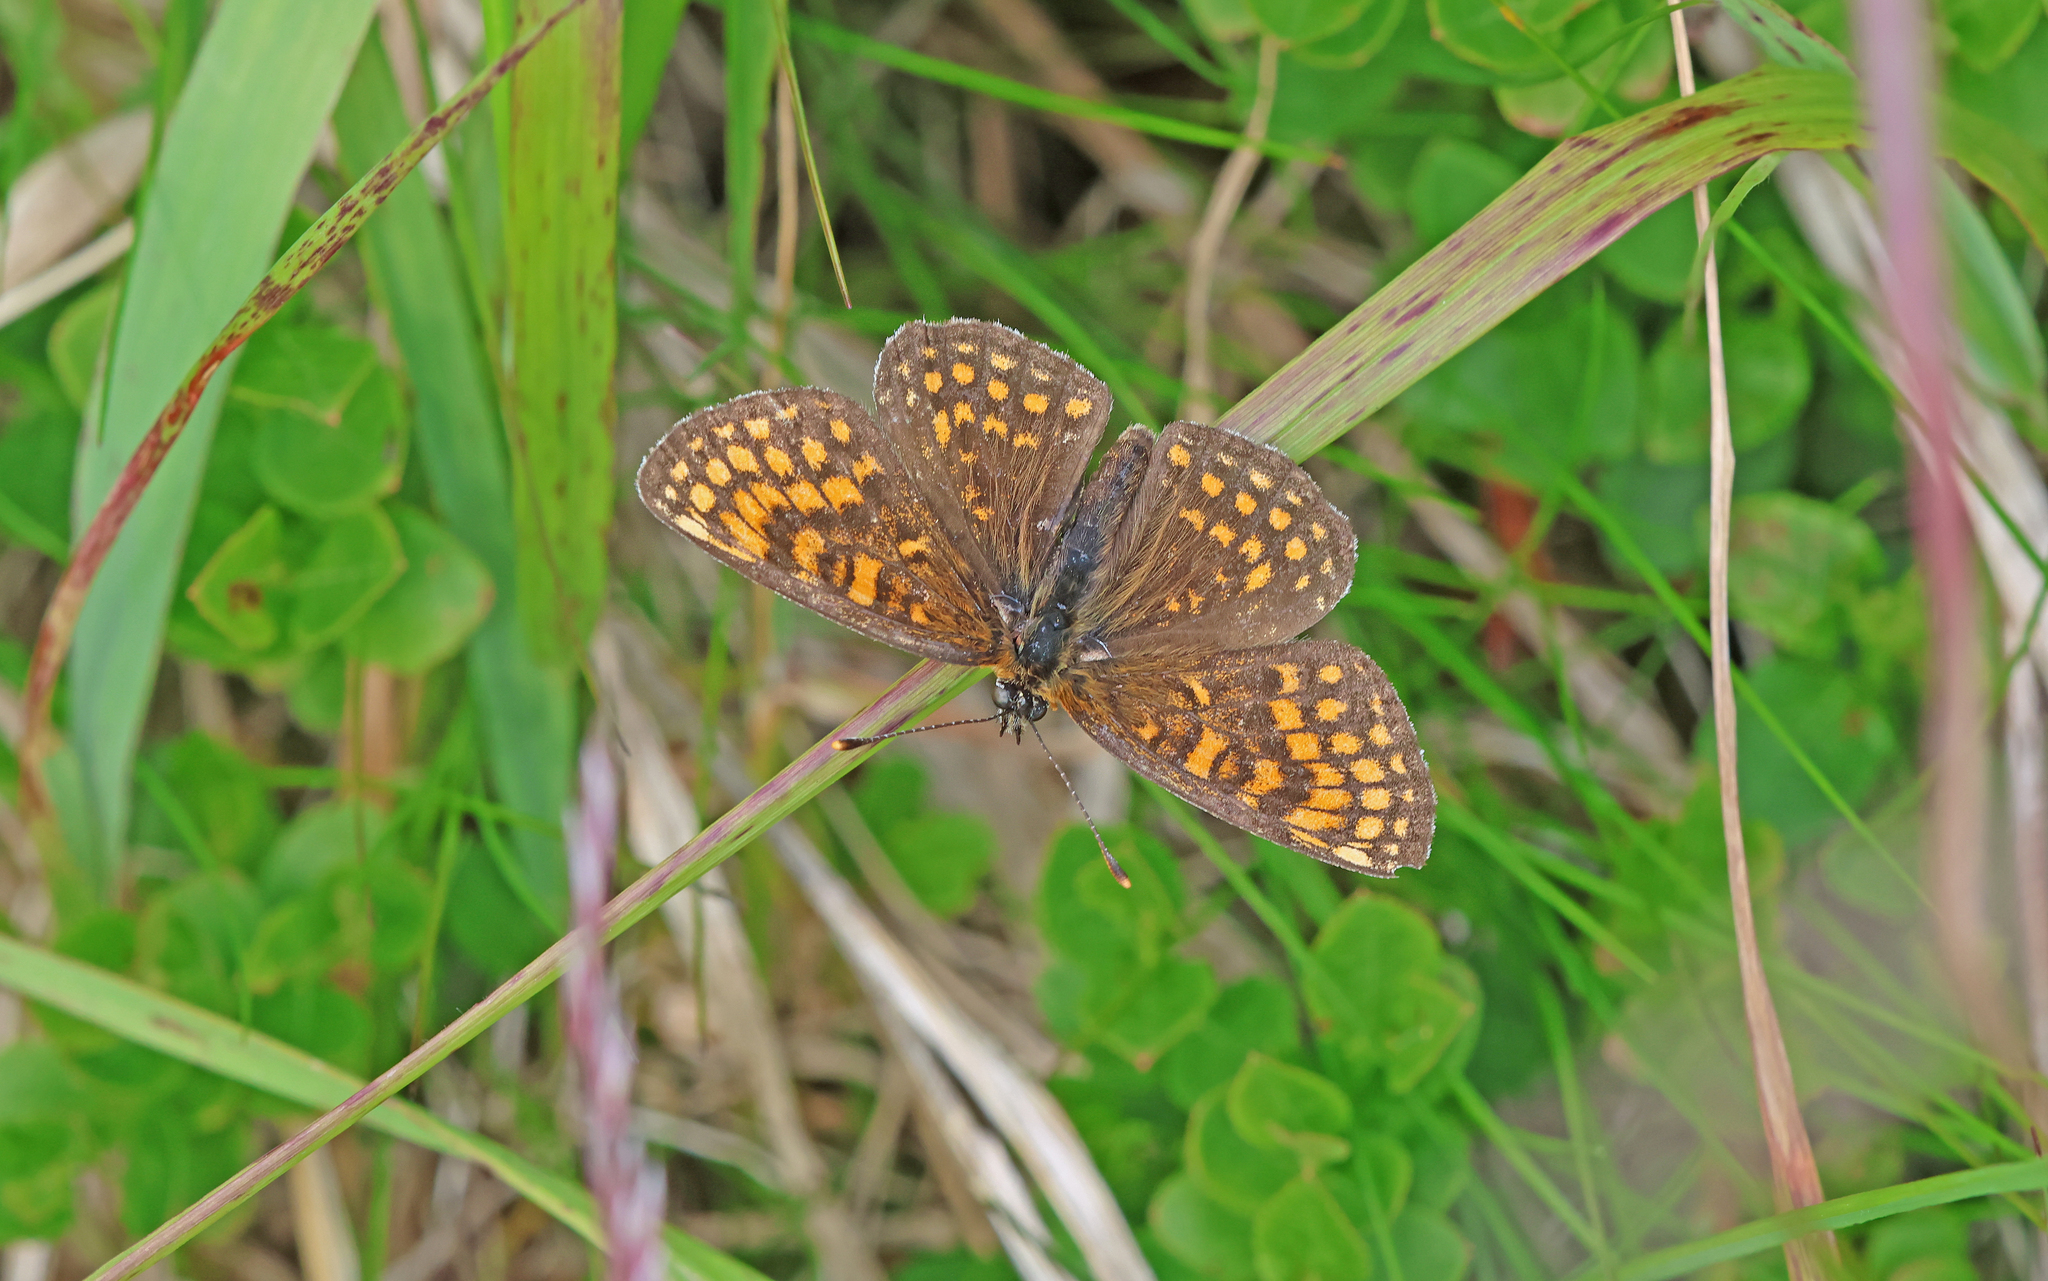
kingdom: Animalia
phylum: Arthropoda
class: Insecta
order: Lepidoptera
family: Nymphalidae
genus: Melitaea
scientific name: Melitaea athalia
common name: Heath fritillary
